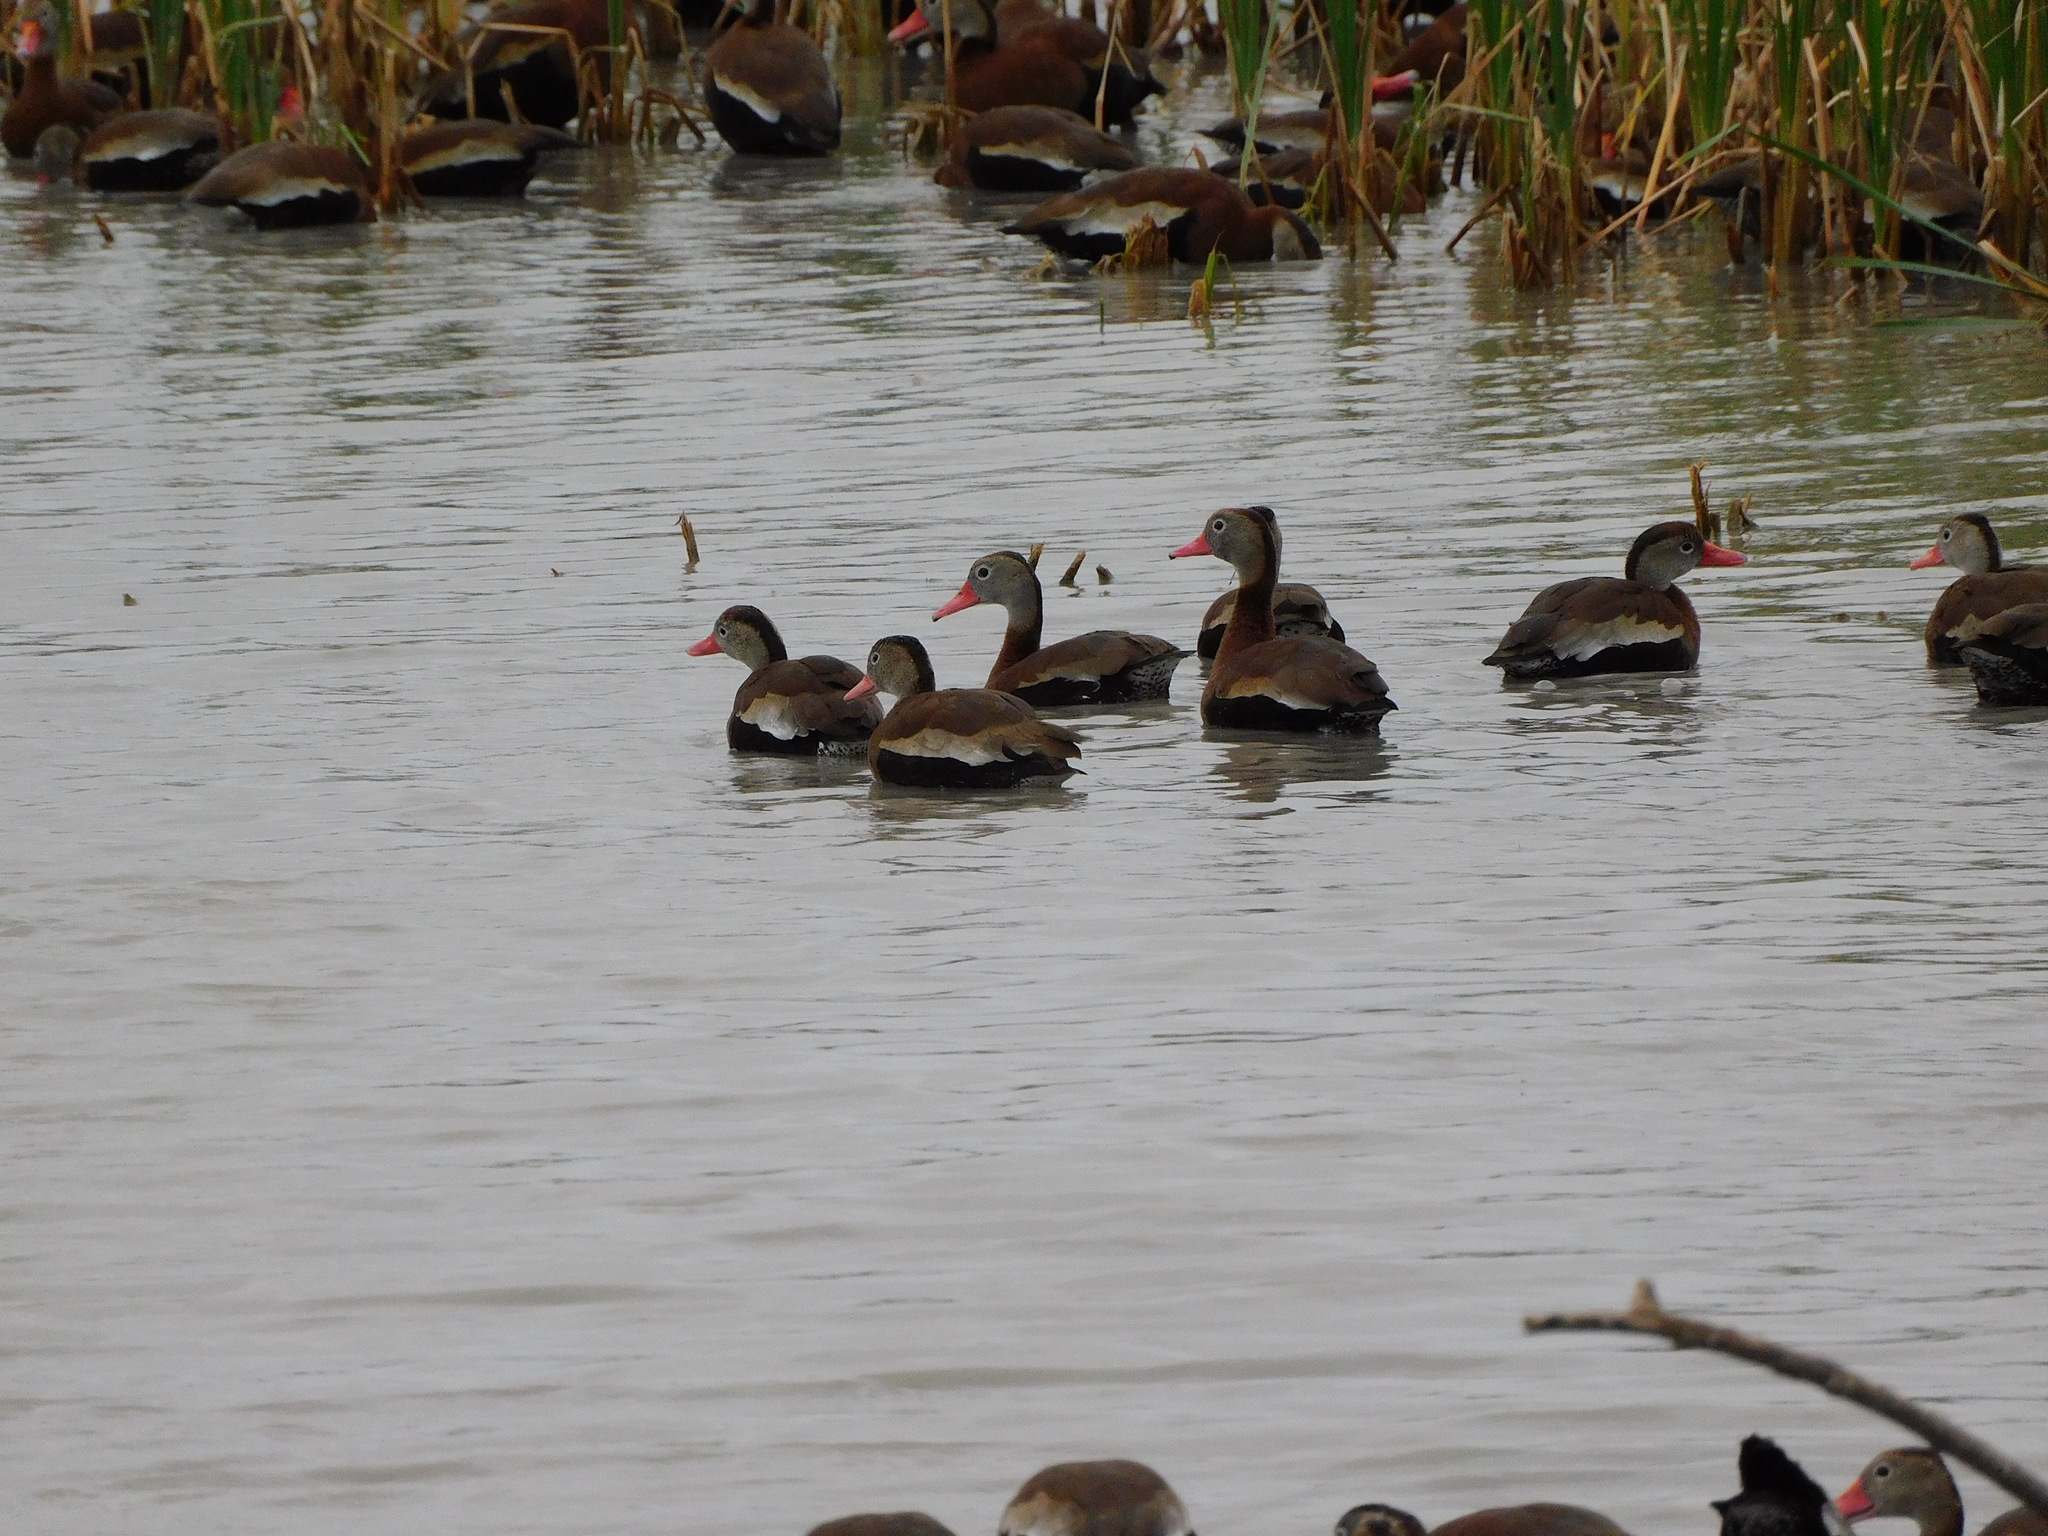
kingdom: Animalia
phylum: Chordata
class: Aves
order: Anseriformes
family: Anatidae
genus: Dendrocygna
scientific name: Dendrocygna autumnalis
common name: Black-bellied whistling duck
